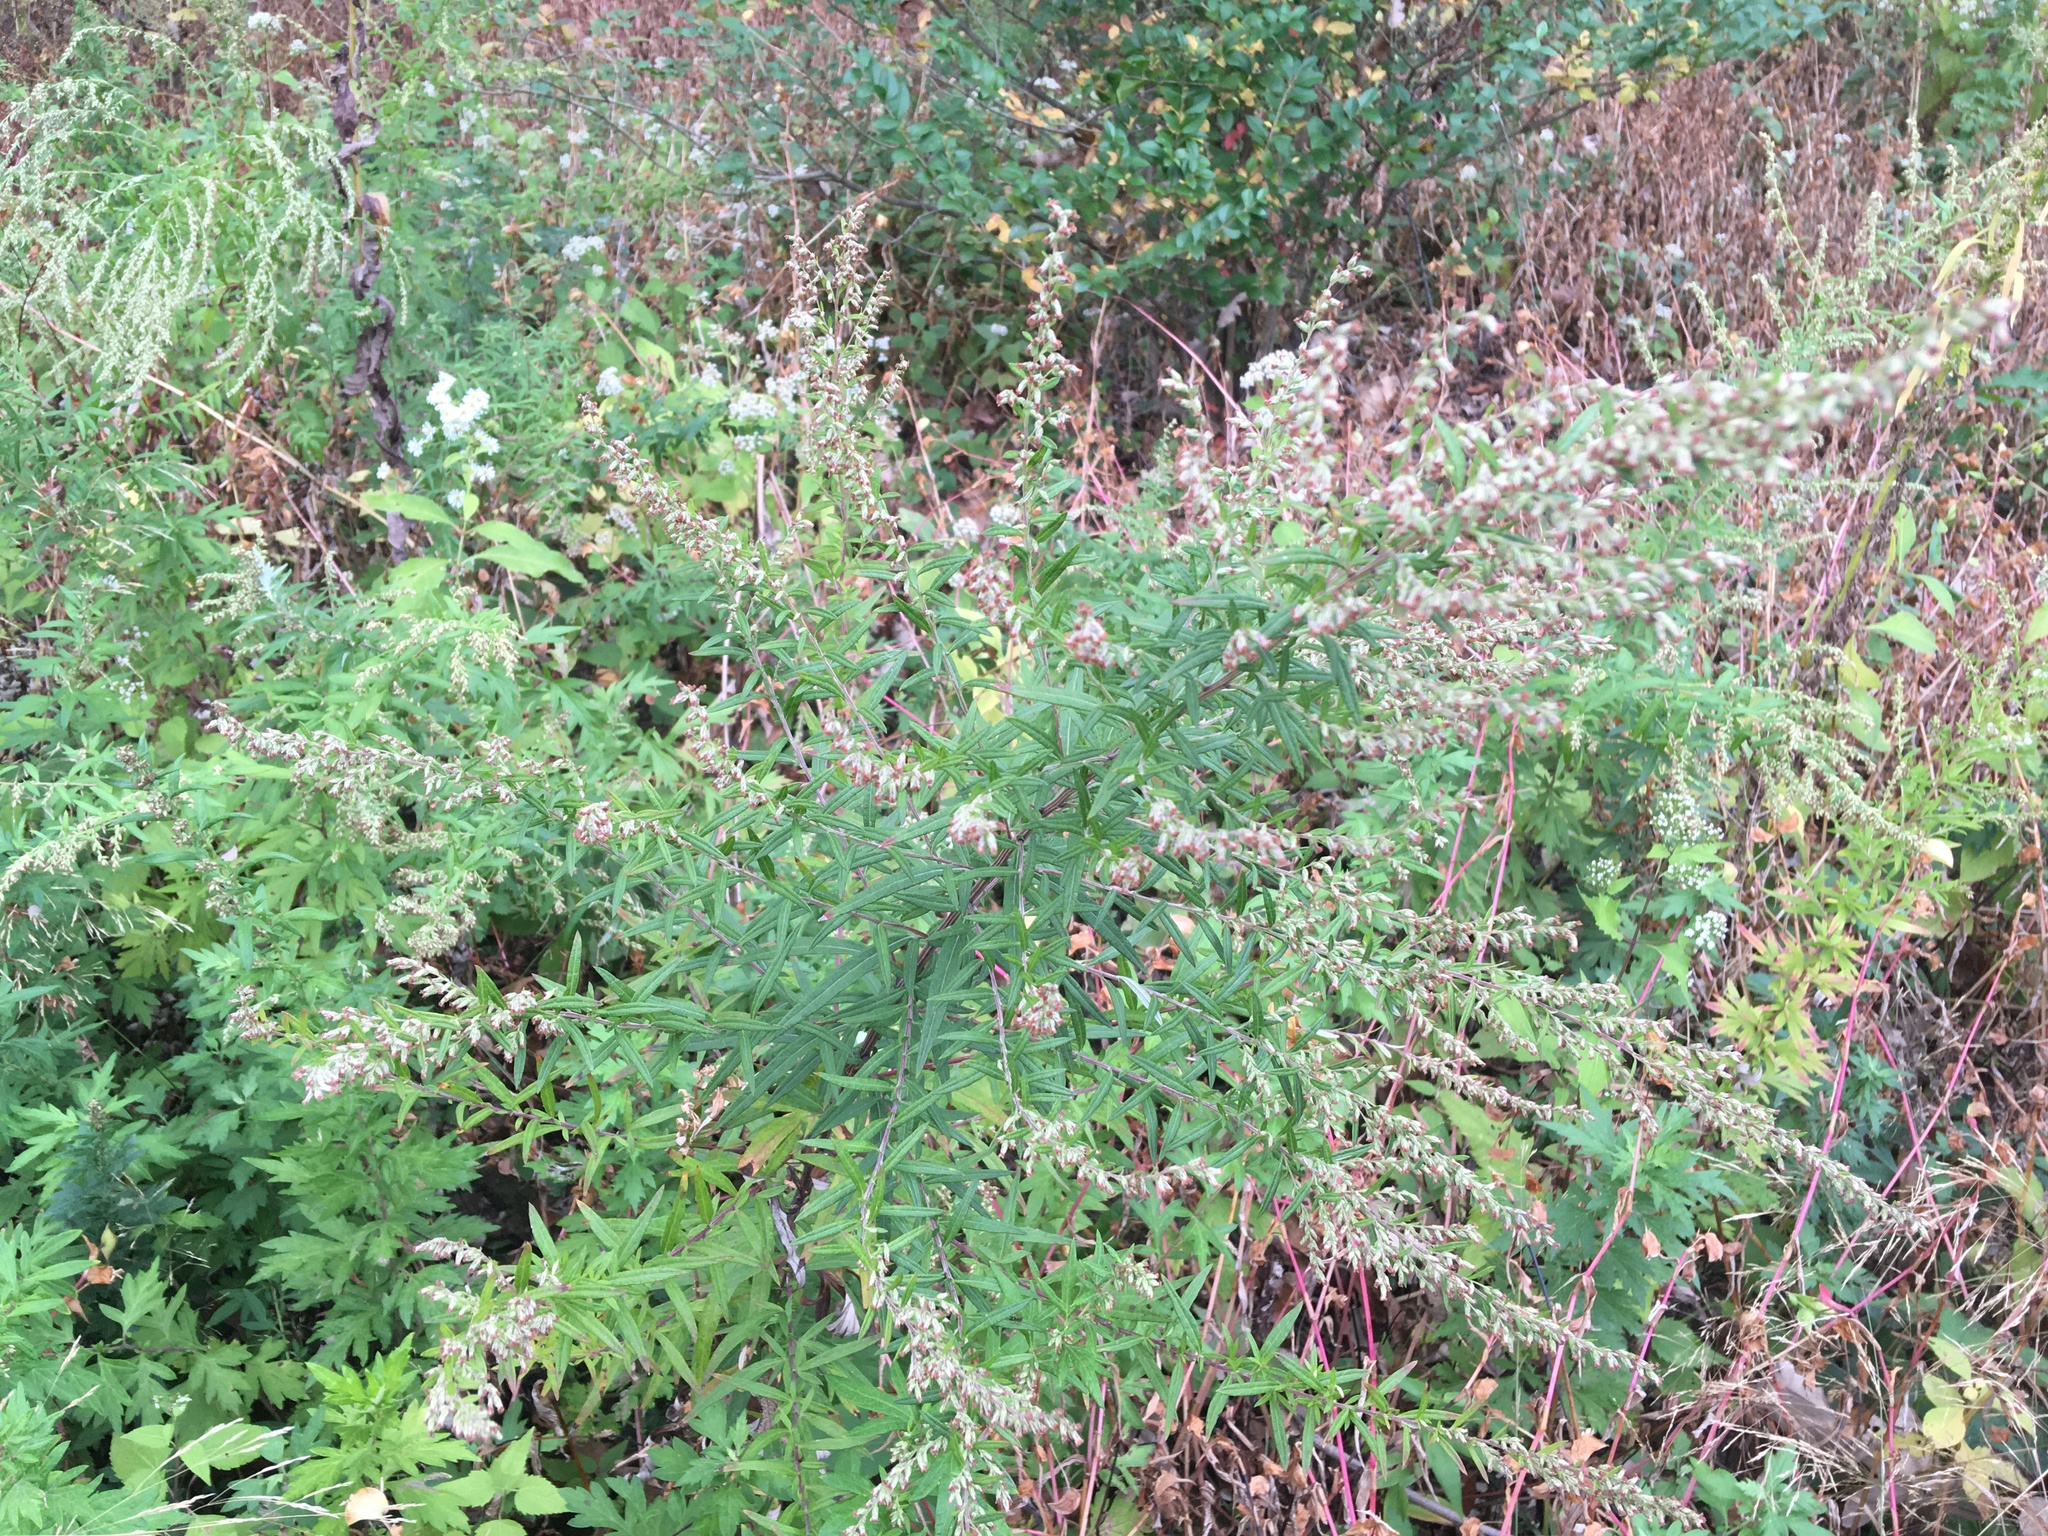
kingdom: Plantae
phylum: Tracheophyta
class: Magnoliopsida
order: Asterales
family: Asteraceae
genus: Artemisia
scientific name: Artemisia vulgaris
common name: Mugwort
